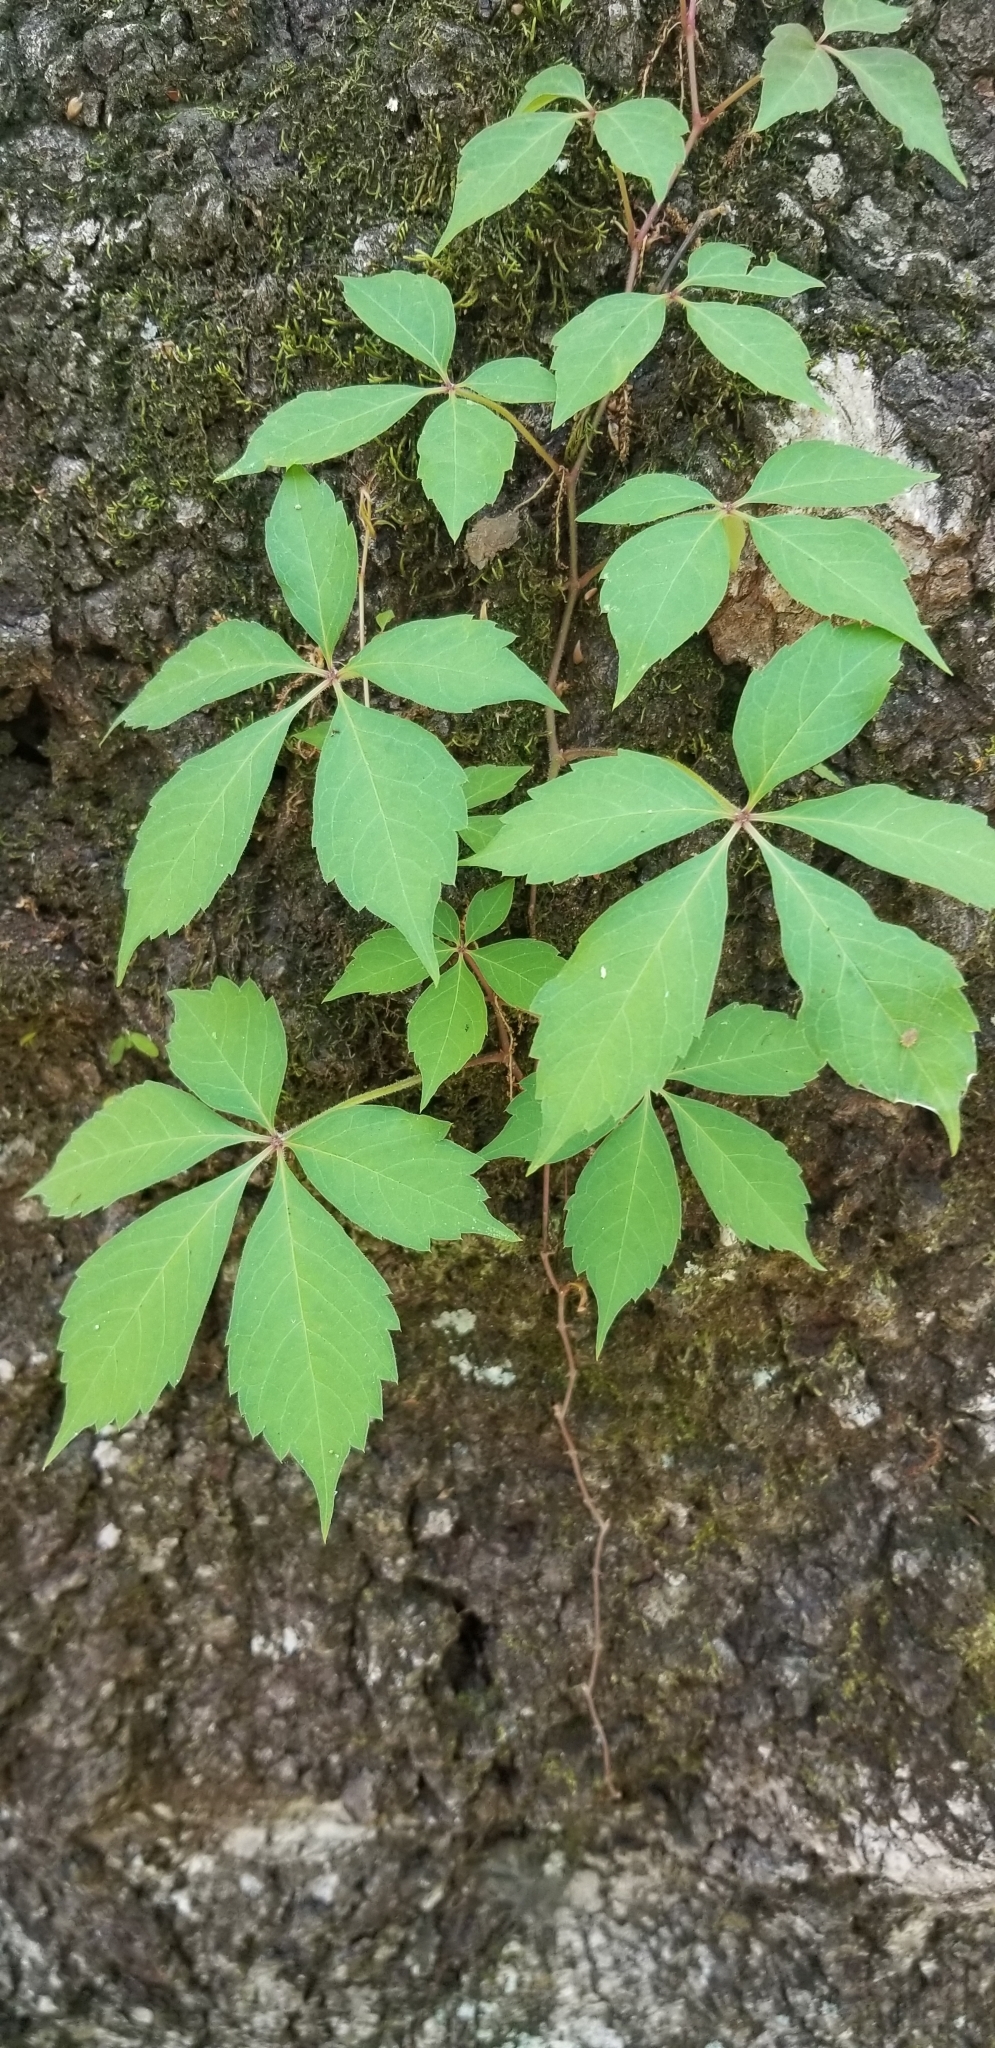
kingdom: Plantae
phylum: Tracheophyta
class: Magnoliopsida
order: Vitales
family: Vitaceae
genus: Parthenocissus
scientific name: Parthenocissus quinquefolia
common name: Virginia-creeper
